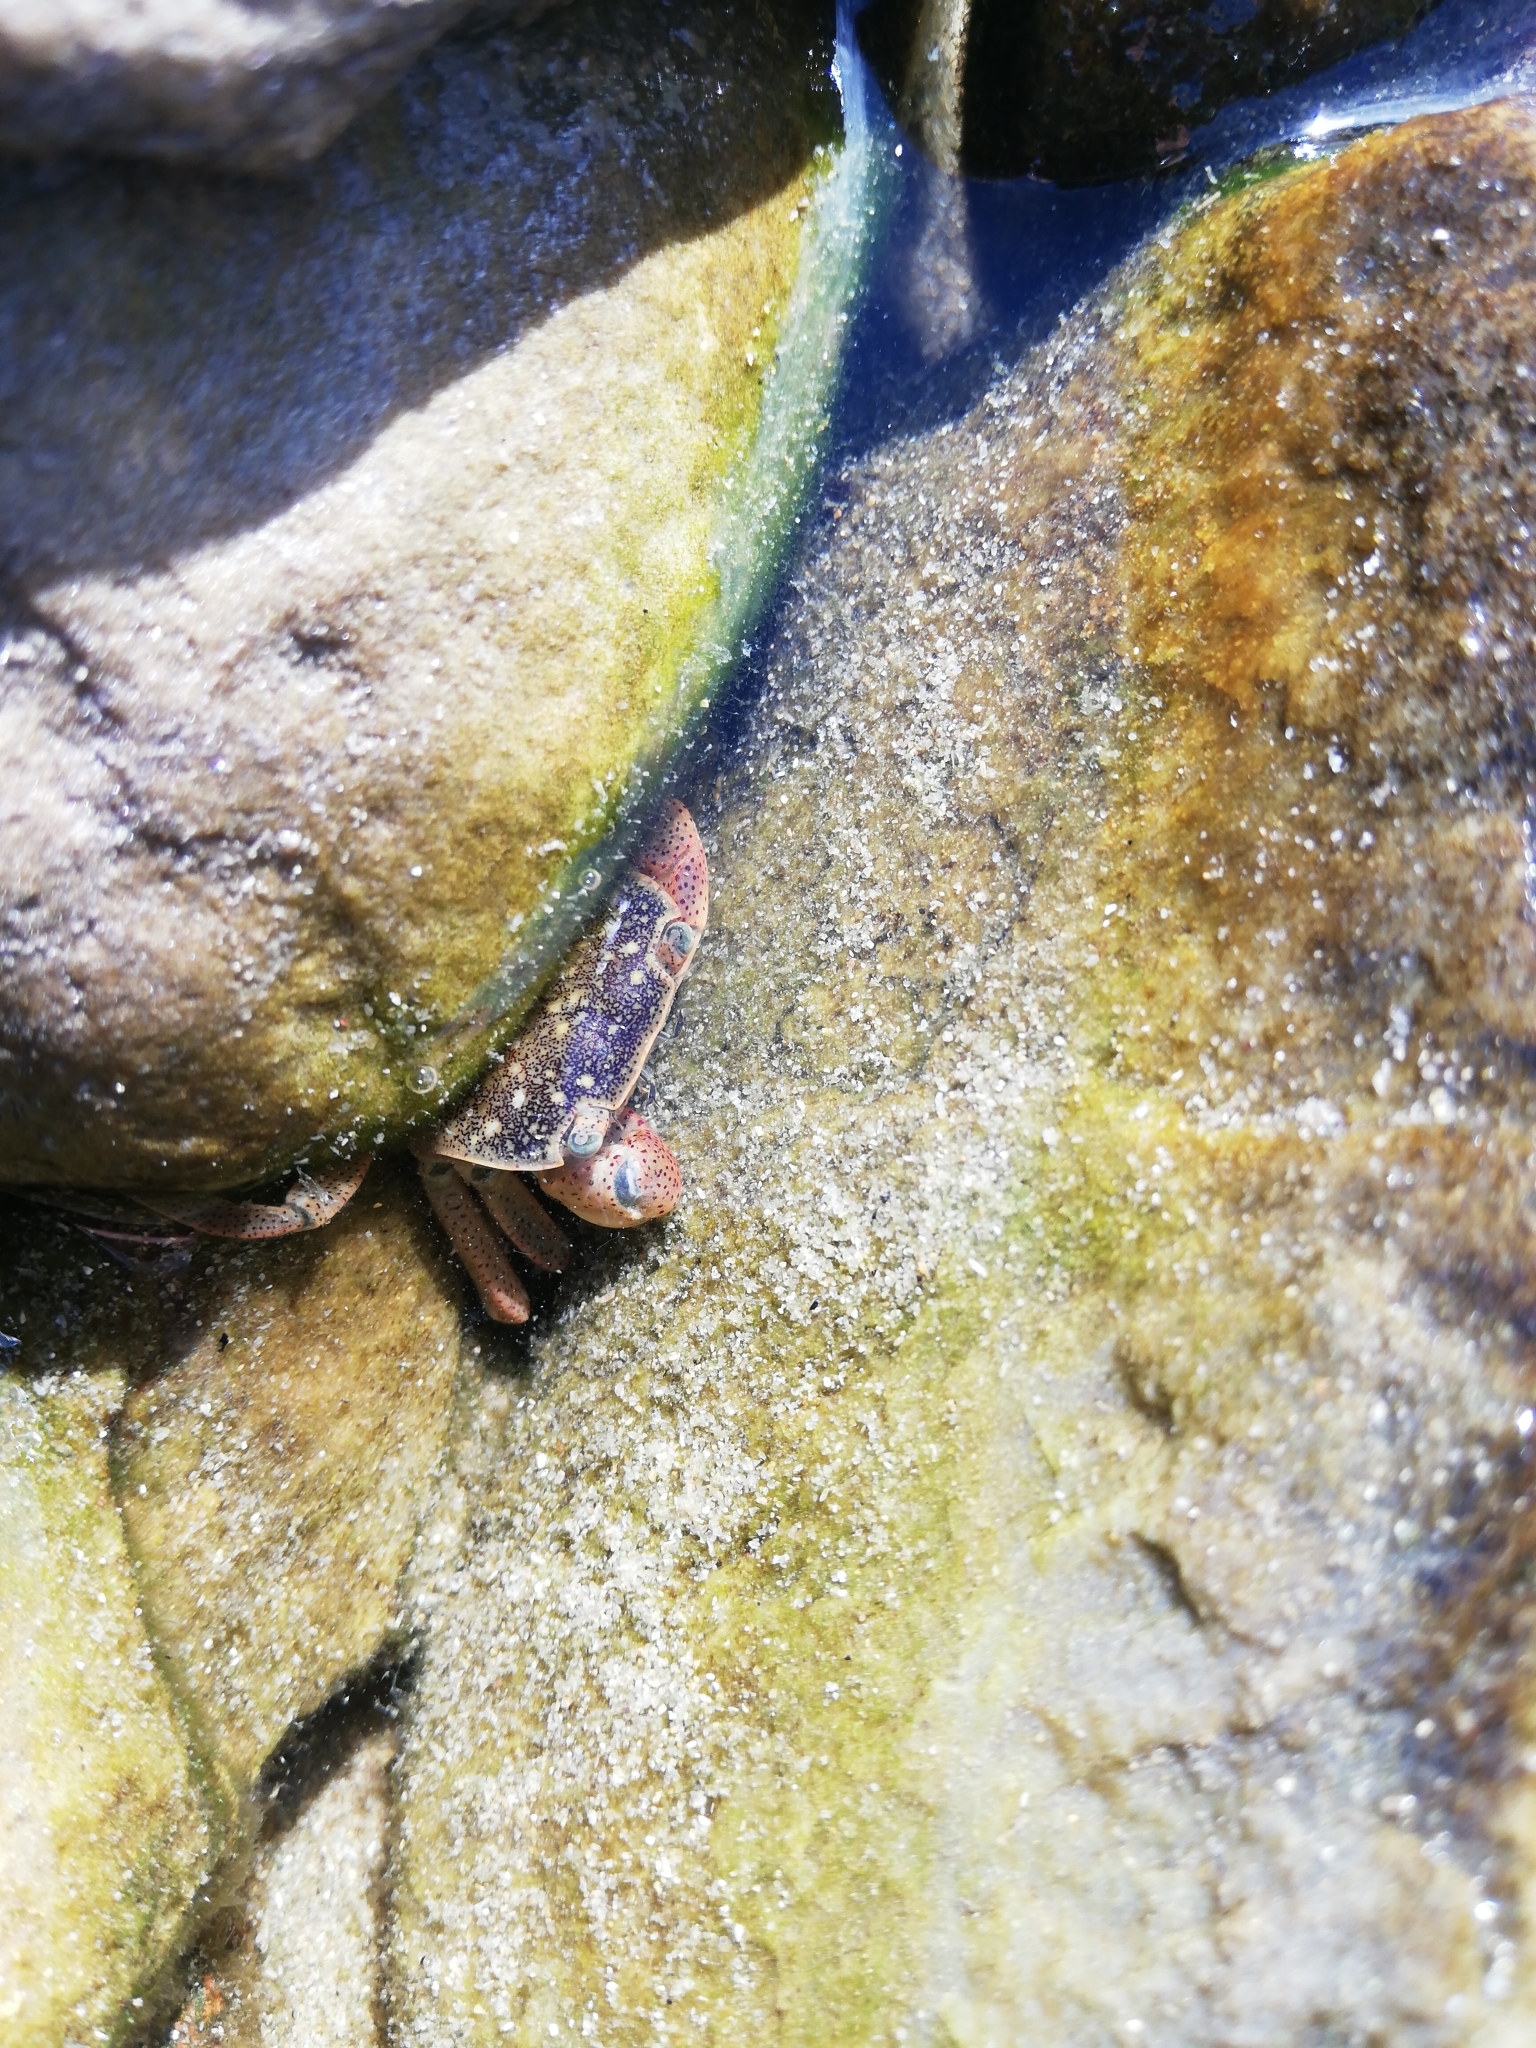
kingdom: Animalia
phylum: Arthropoda
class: Malacostraca
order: Decapoda
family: Varunidae
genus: Cyclograpsus
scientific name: Cyclograpsus punctatus
